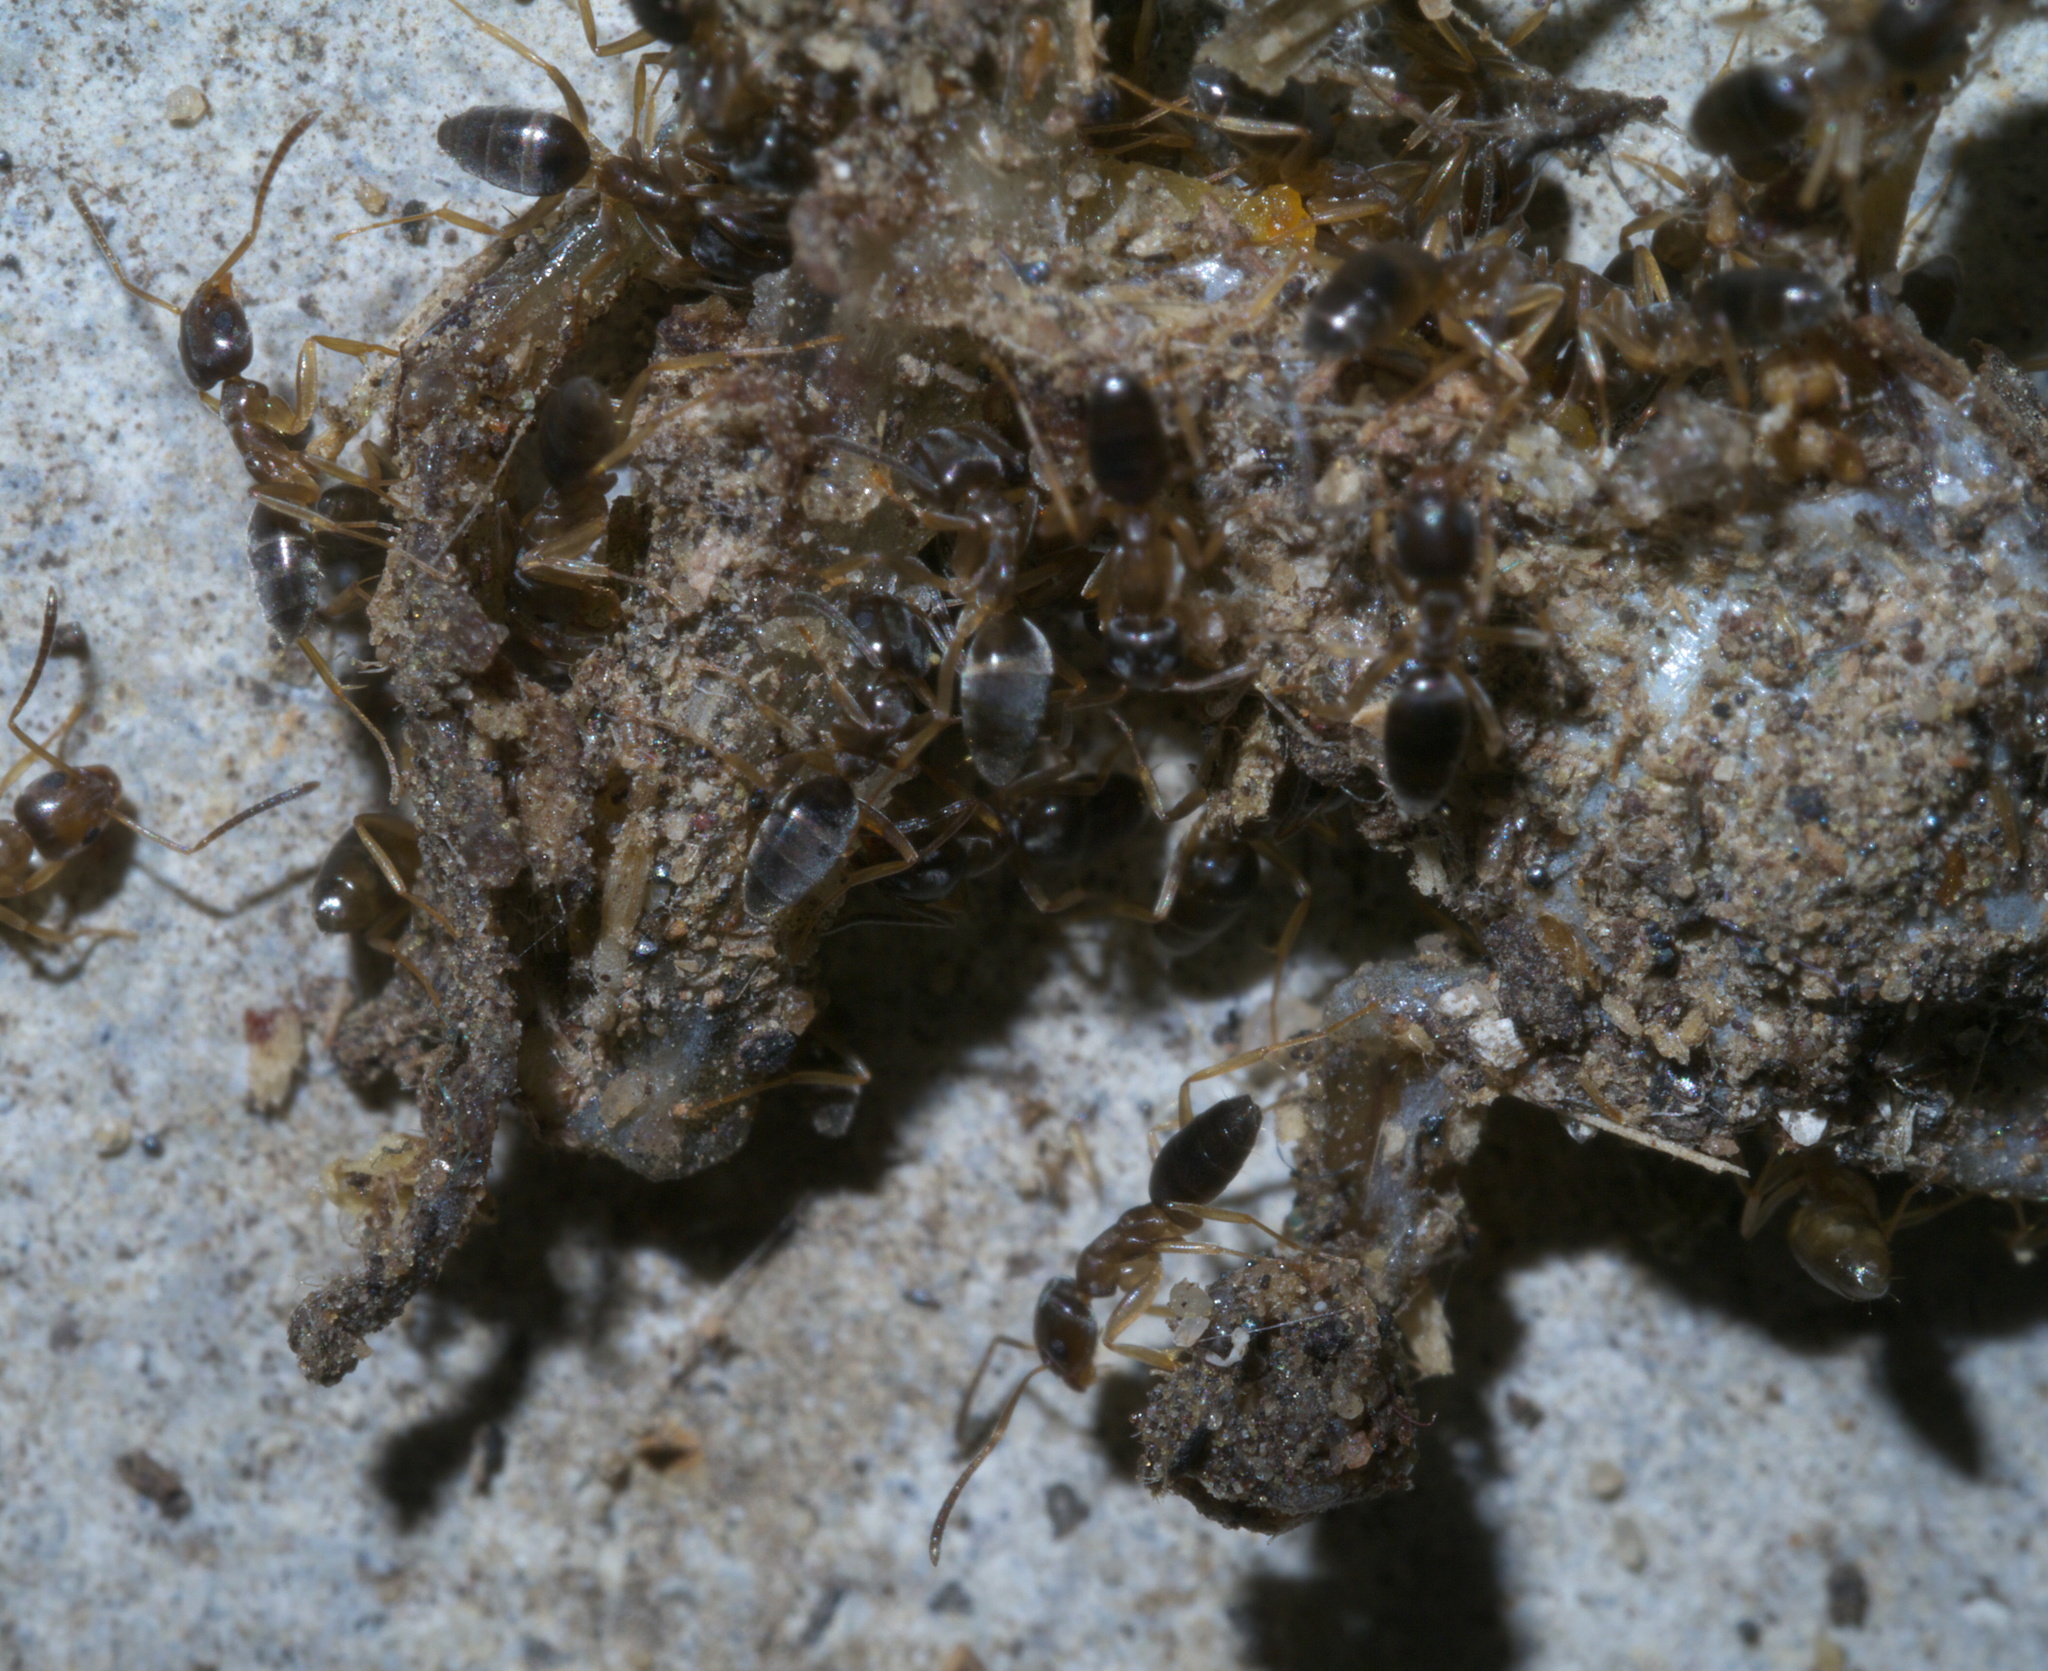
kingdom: Animalia
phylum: Arthropoda
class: Insecta
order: Hymenoptera
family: Formicidae
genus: Tapinoma
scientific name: Tapinoma sessile
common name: Odorous house ant
